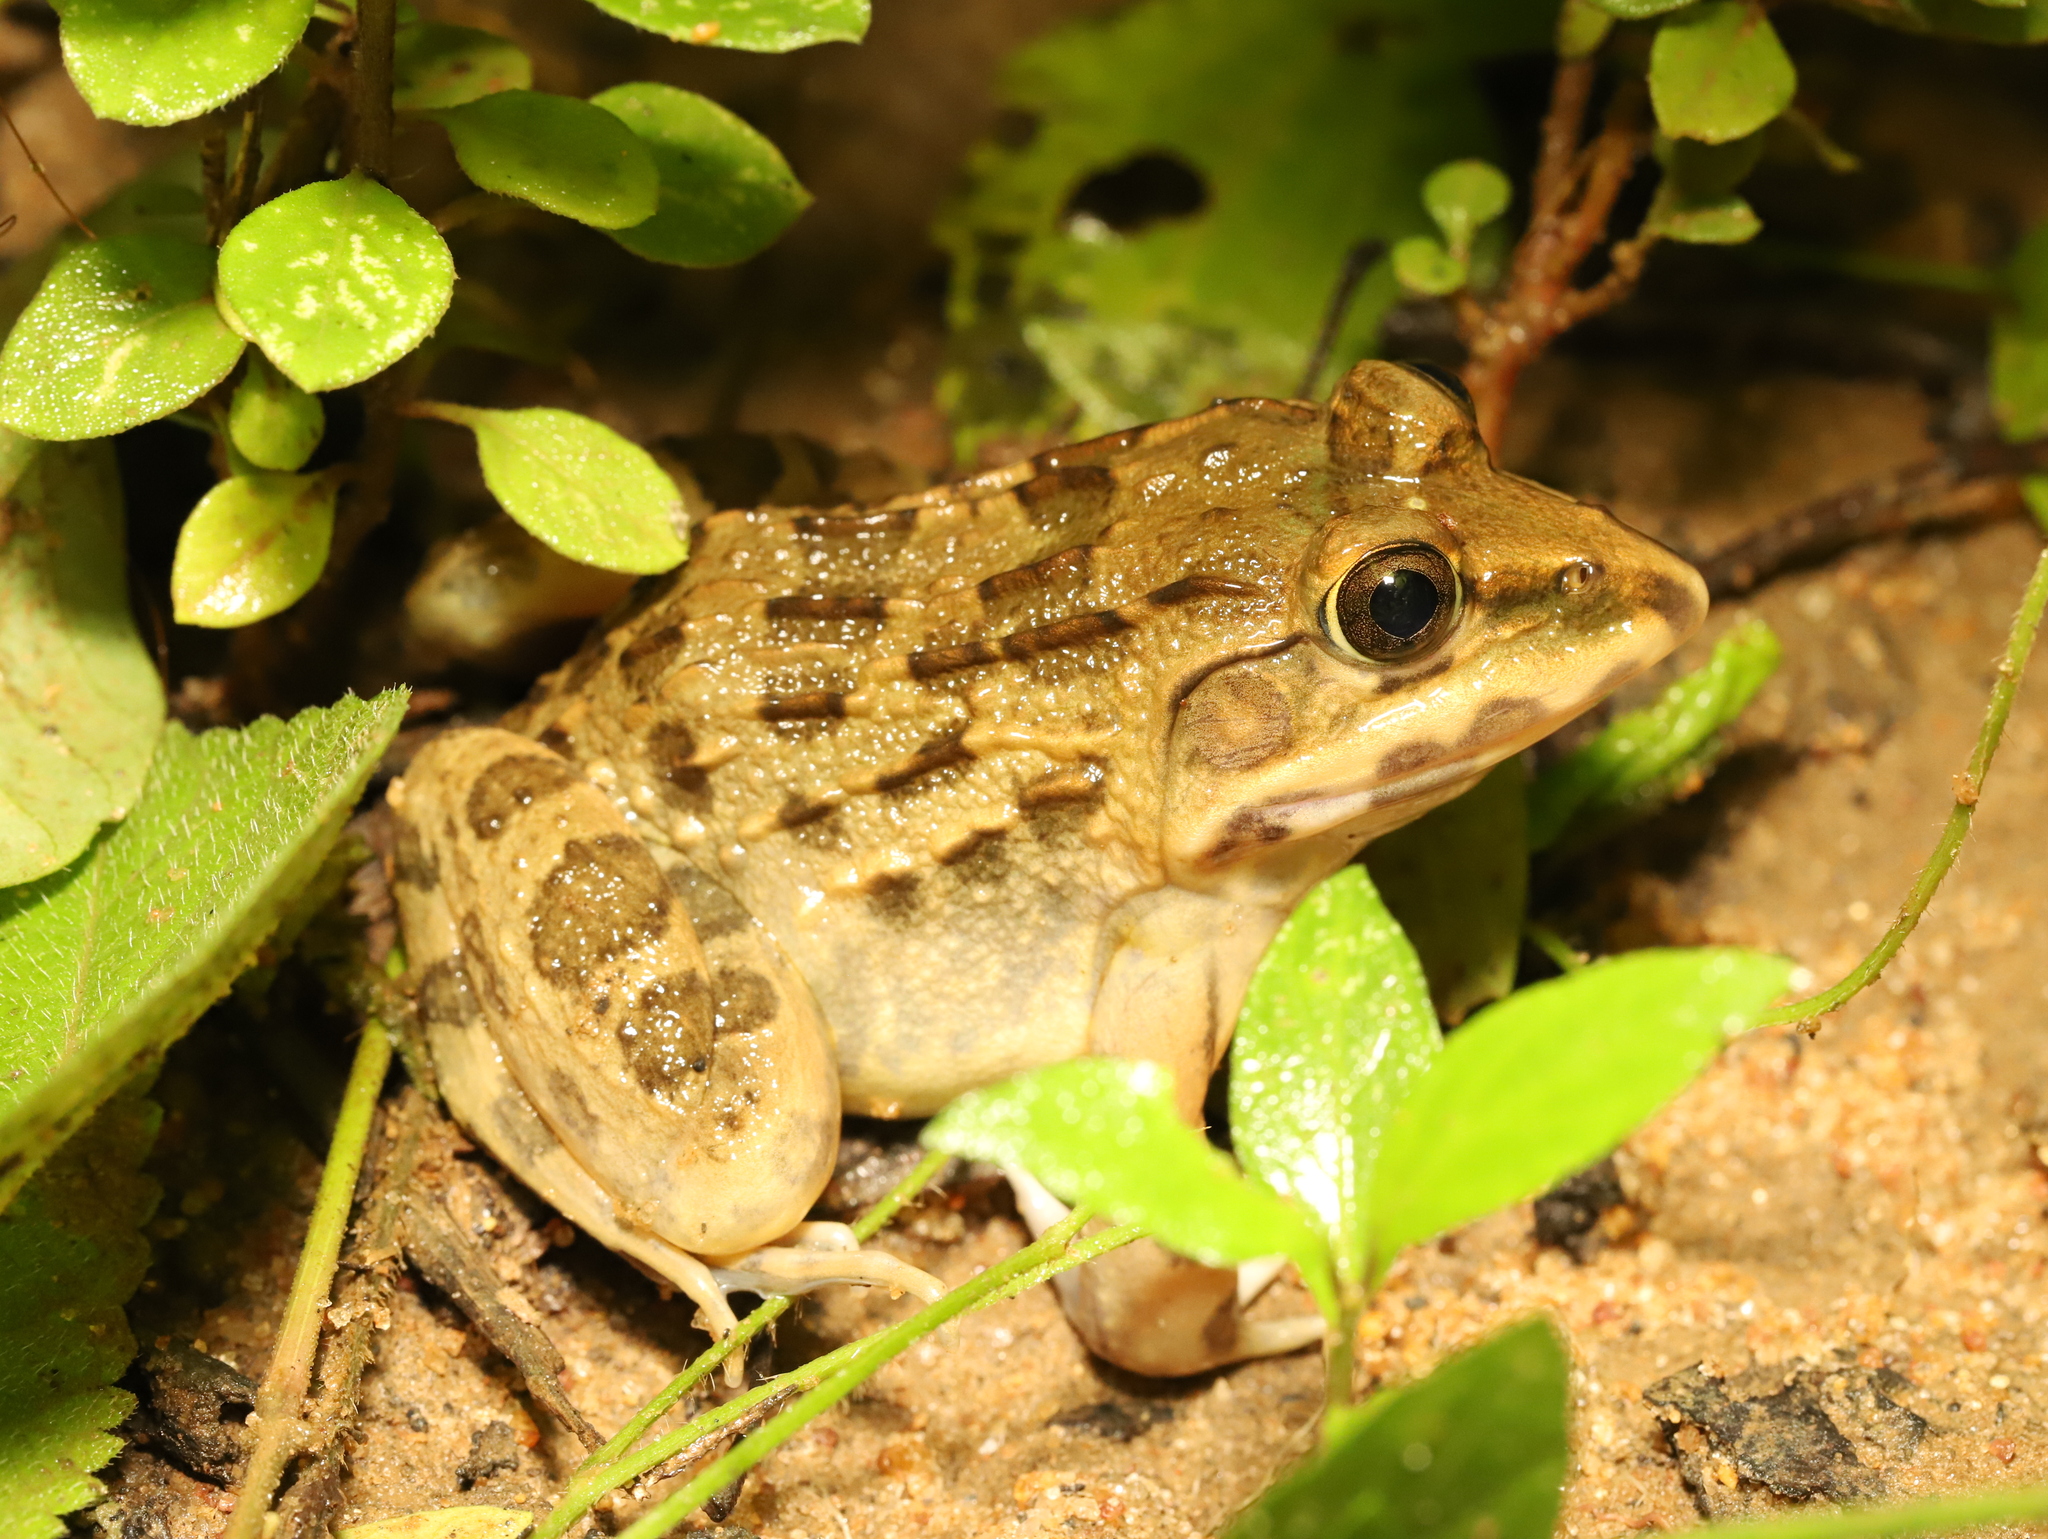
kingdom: Animalia
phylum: Chordata
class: Amphibia
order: Anura
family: Dicroglossidae
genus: Hoplobatrachus
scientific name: Hoplobatrachus crassus
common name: Jerdon's bullfrog
